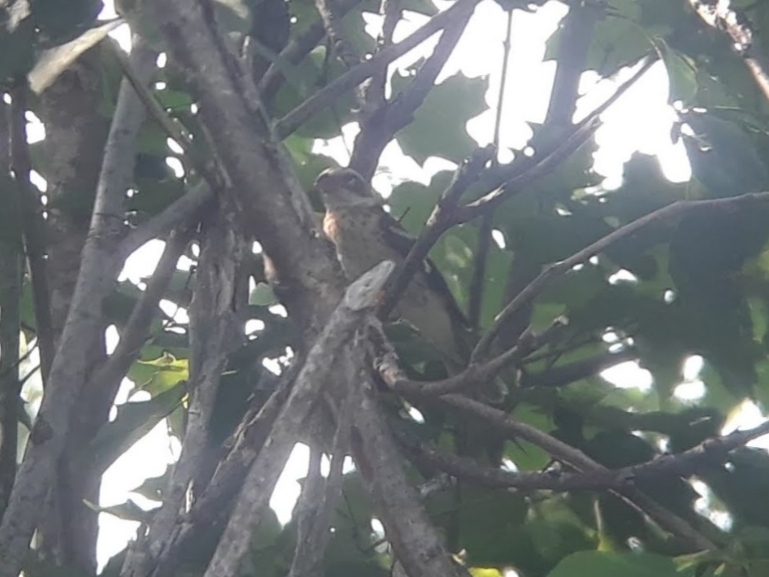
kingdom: Animalia
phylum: Chordata
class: Aves
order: Passeriformes
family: Cardinalidae
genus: Pheucticus
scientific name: Pheucticus ludovicianus
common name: Rose-breasted grosbeak
